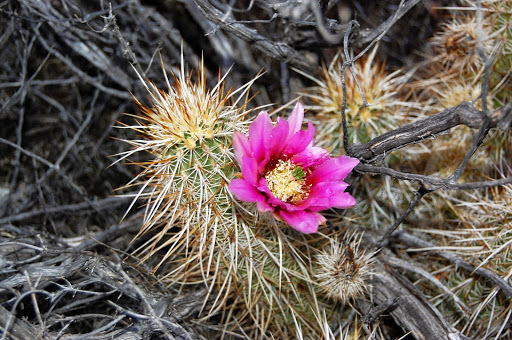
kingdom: Plantae
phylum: Tracheophyta
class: Magnoliopsida
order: Caryophyllales
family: Cactaceae
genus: Echinocereus
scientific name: Echinocereus engelmannii
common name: Engelmann's hedgehog cactus
